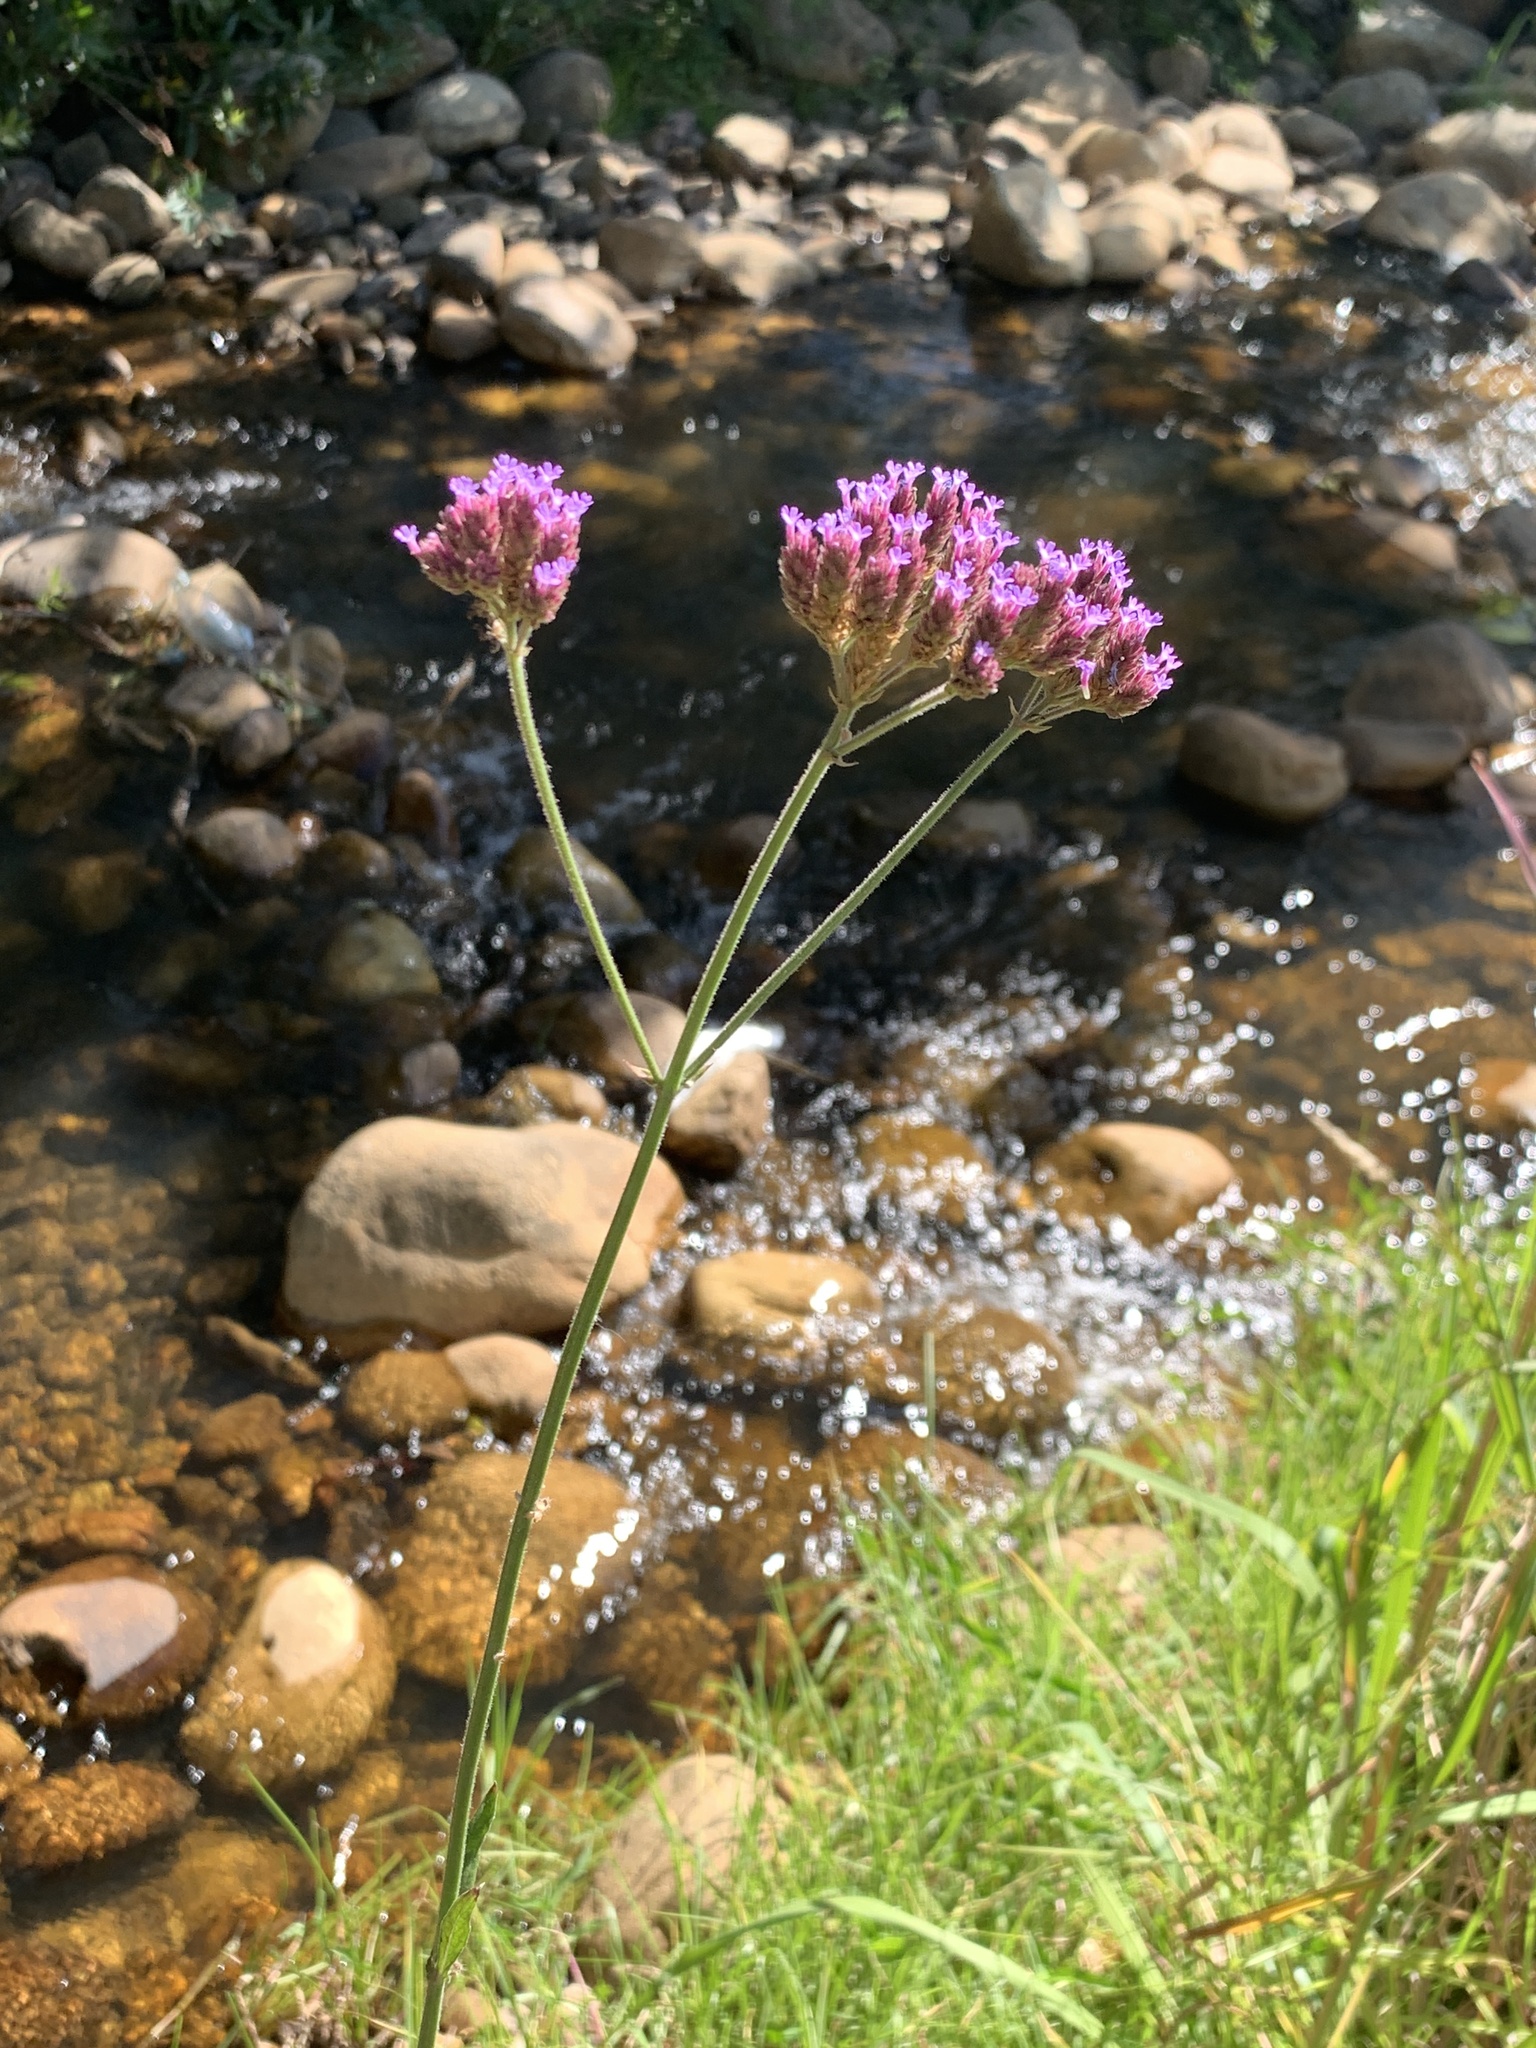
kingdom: Plantae
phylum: Tracheophyta
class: Magnoliopsida
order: Lamiales
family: Verbenaceae
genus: Verbena
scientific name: Verbena bonariensis
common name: Purpletop vervain
